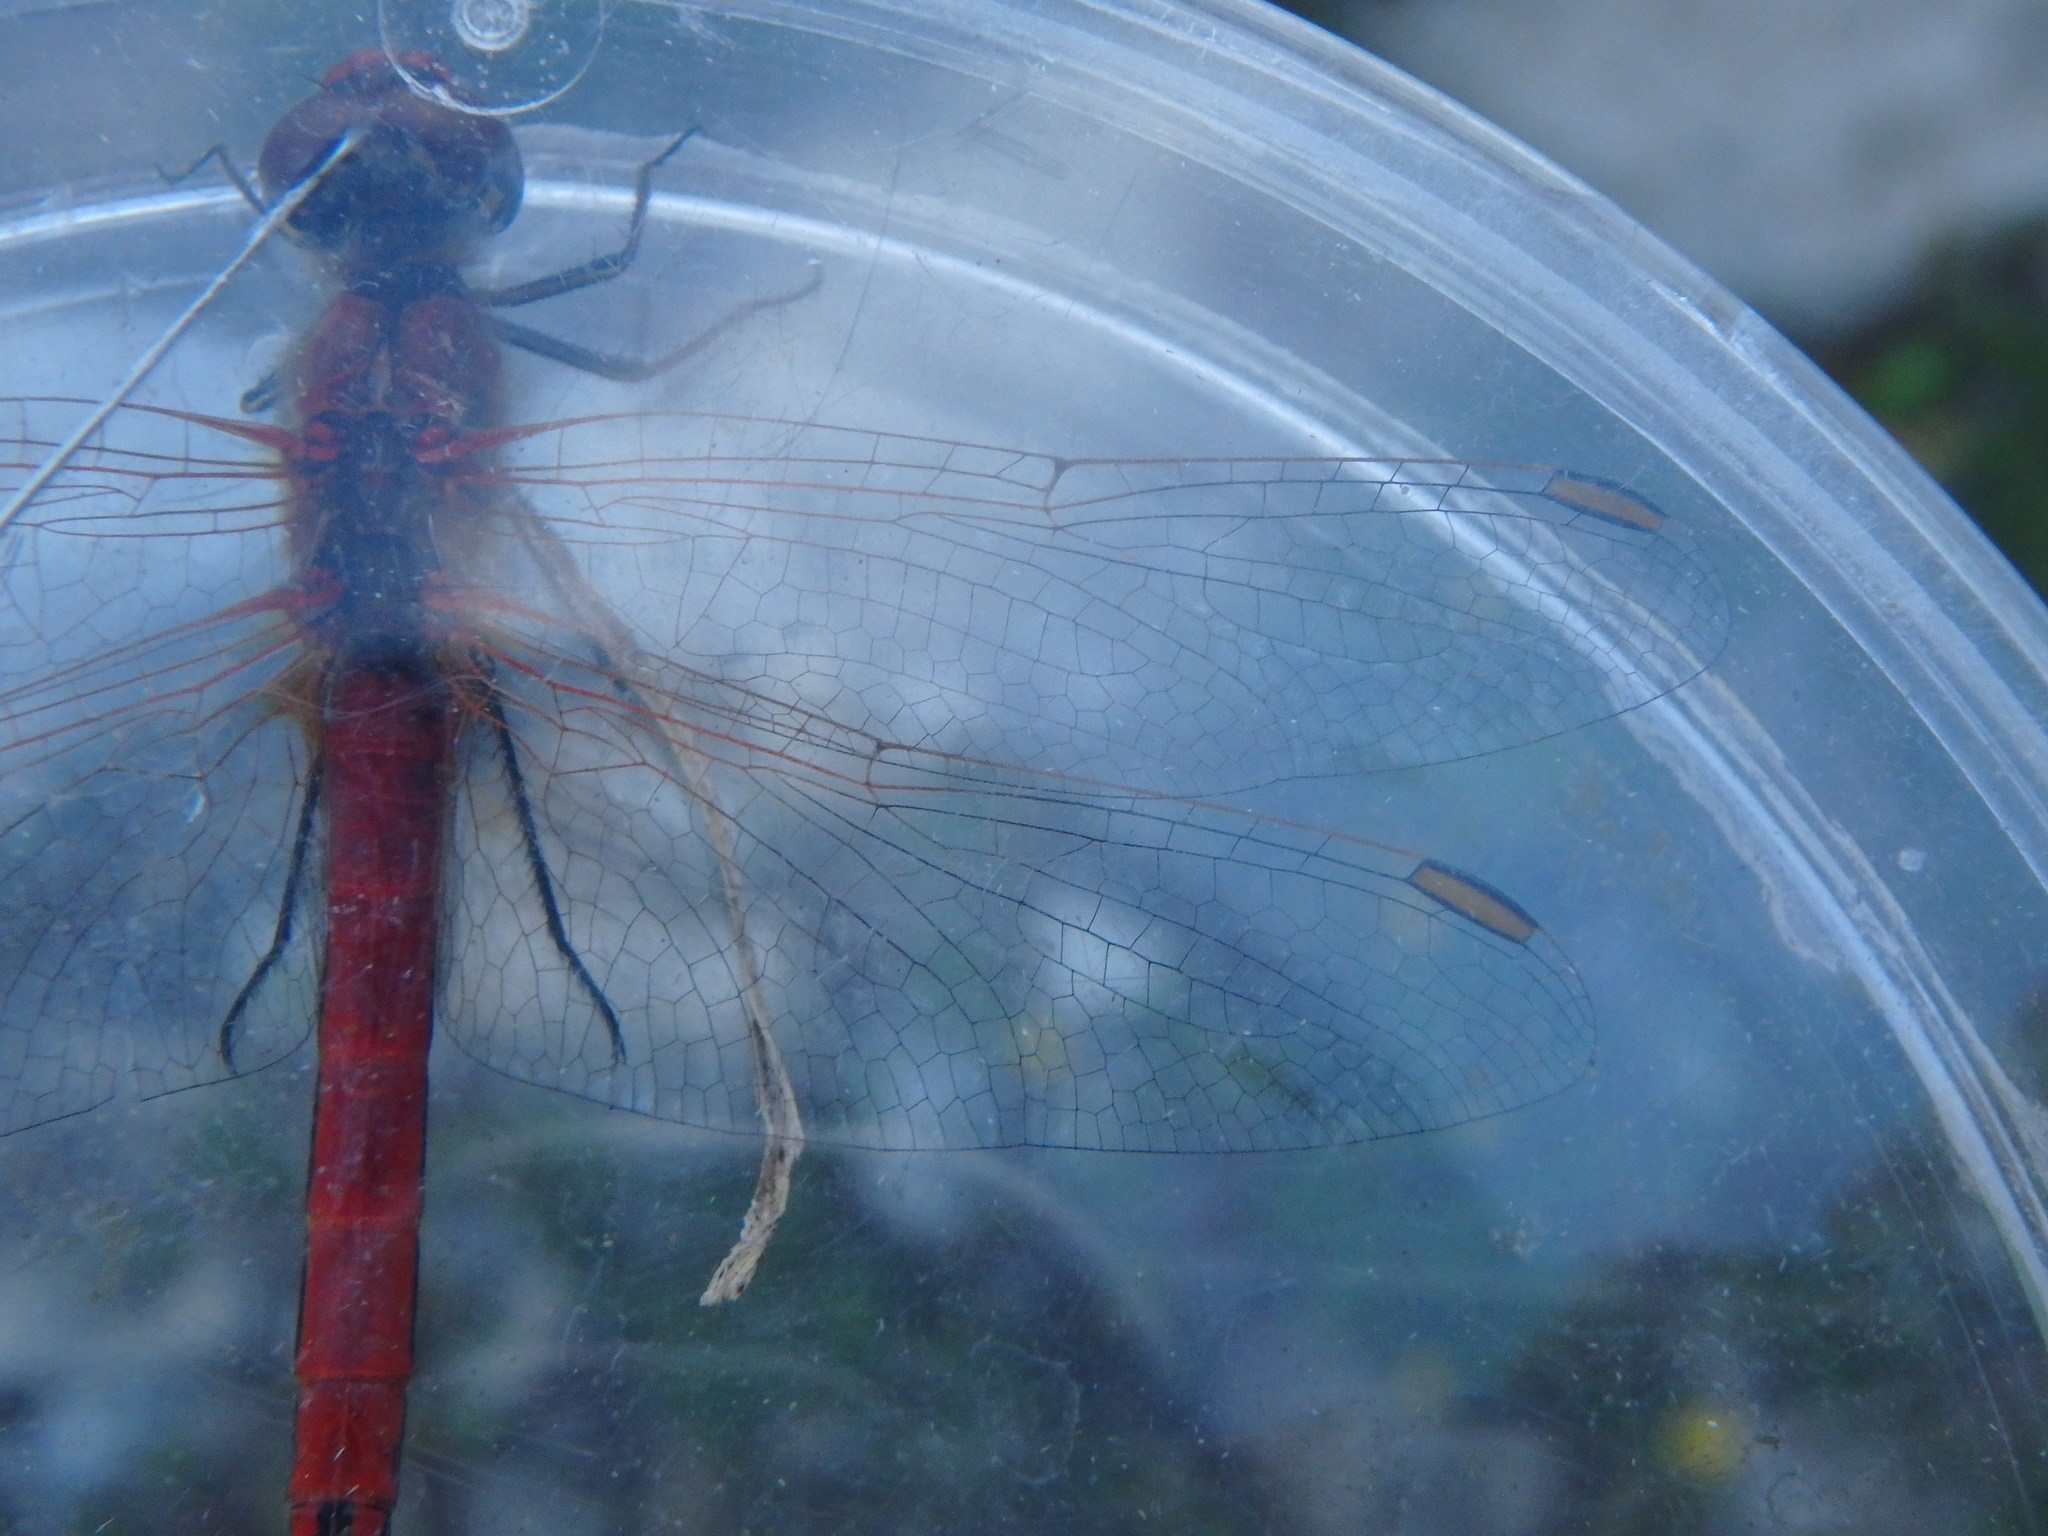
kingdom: Animalia
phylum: Arthropoda
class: Insecta
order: Odonata
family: Libellulidae
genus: Sympetrum
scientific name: Sympetrum fonscolombii
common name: Red-veined darter
